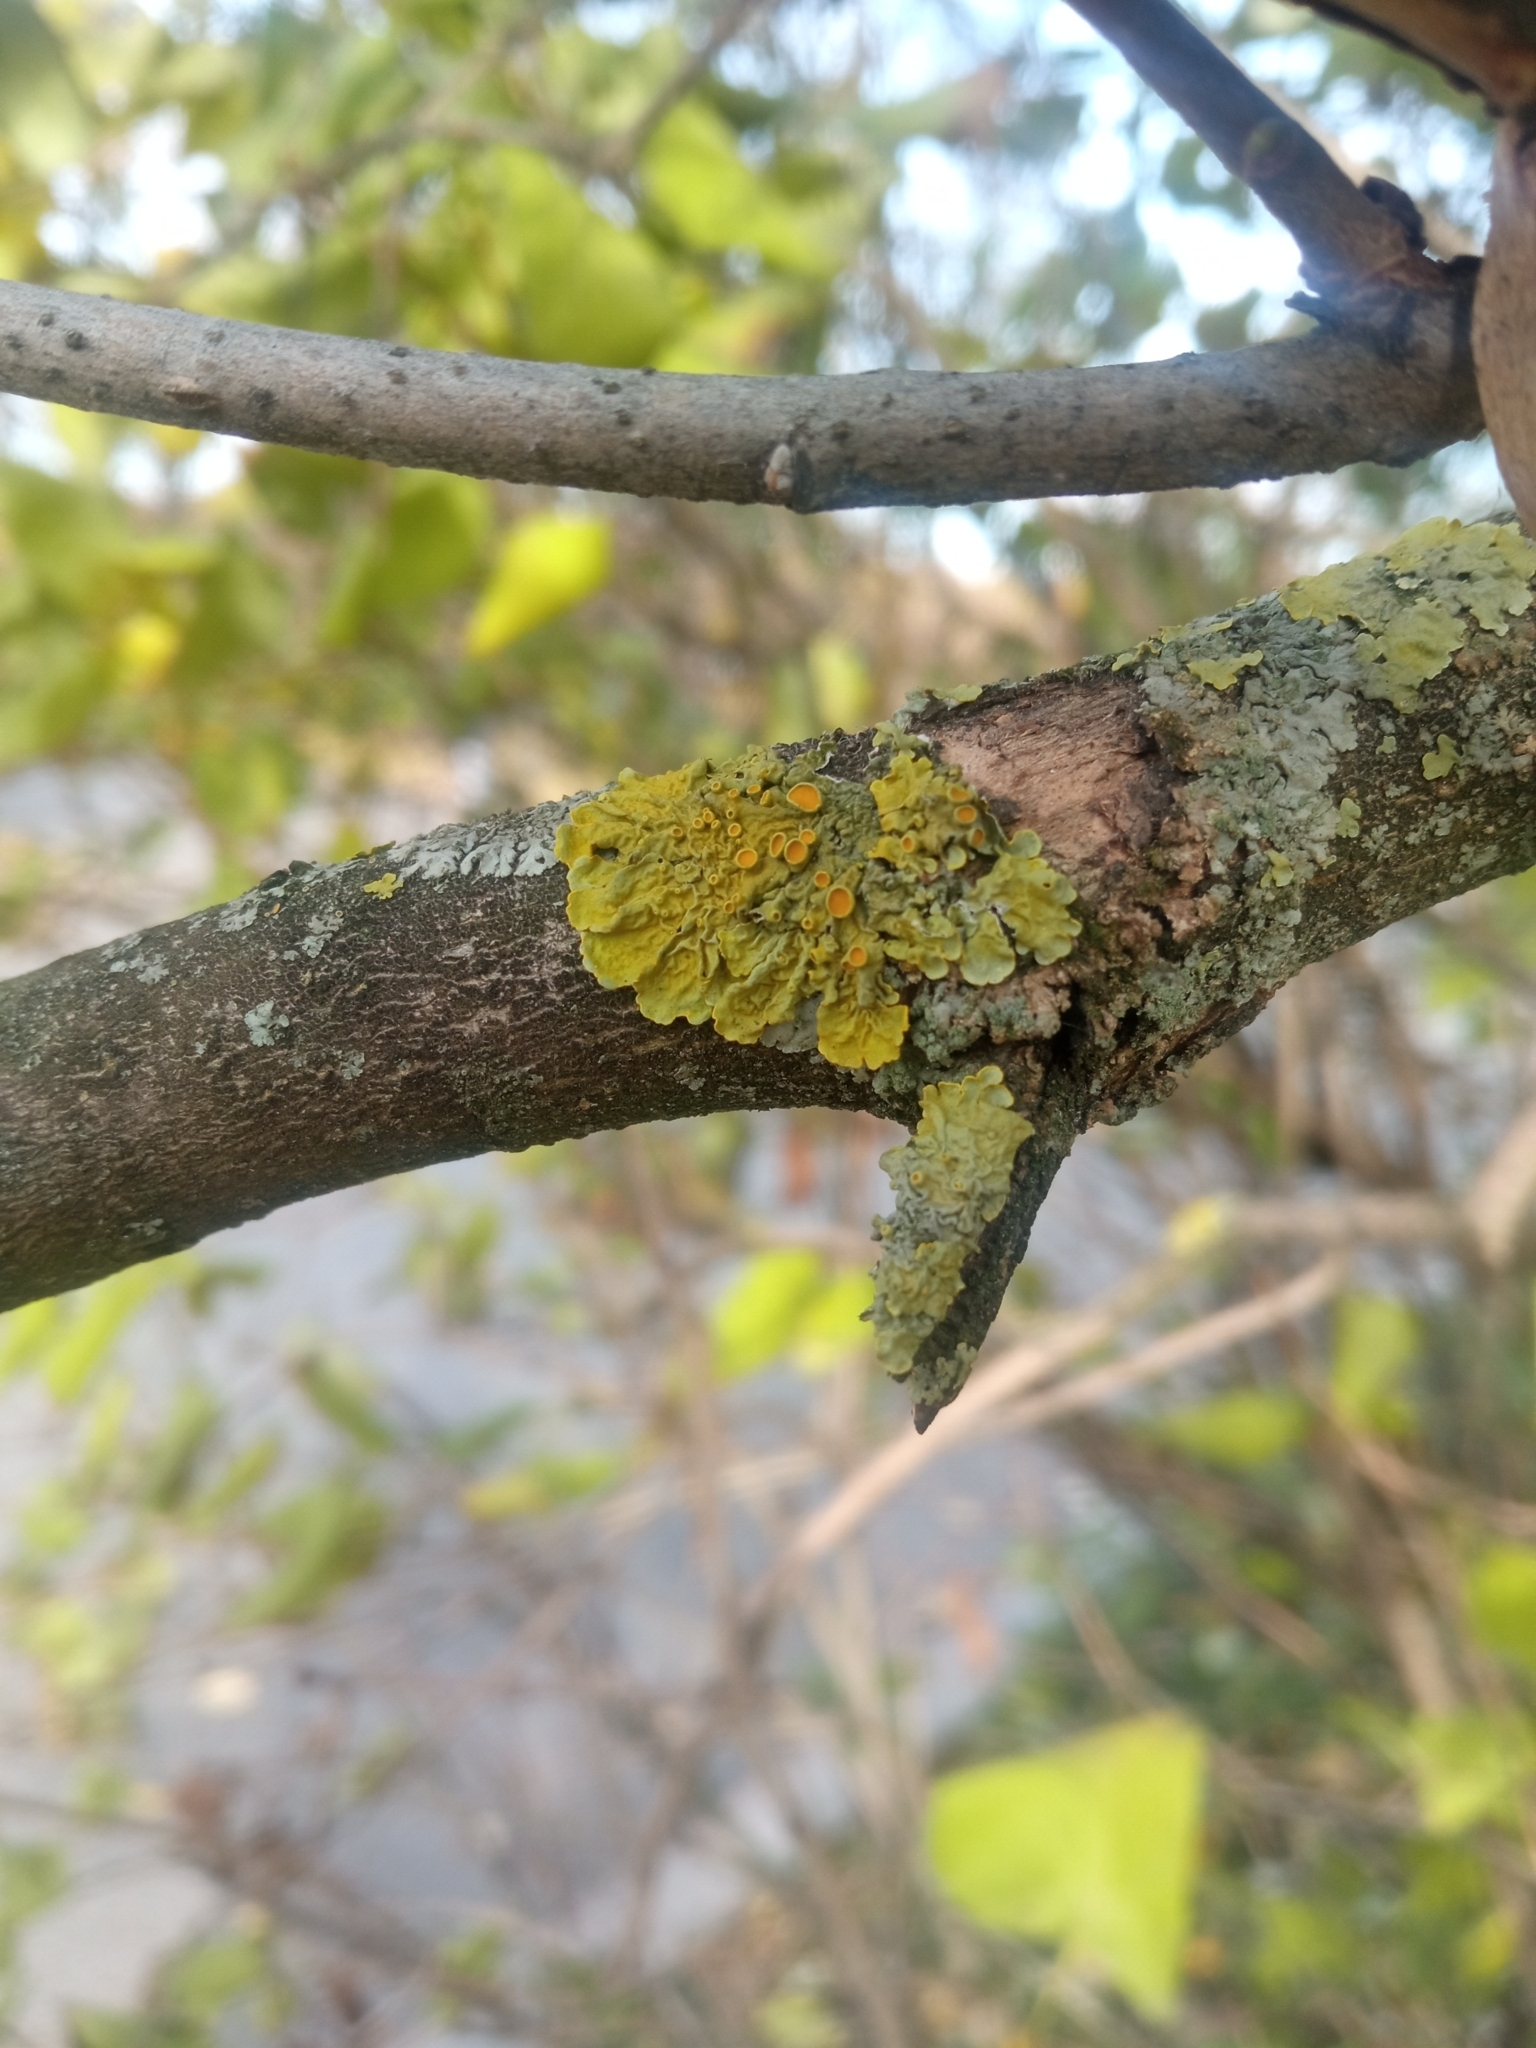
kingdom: Fungi
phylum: Ascomycota
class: Lecanoromycetes
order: Teloschistales
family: Teloschistaceae
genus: Xanthoria
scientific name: Xanthoria parietina
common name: Common orange lichen
